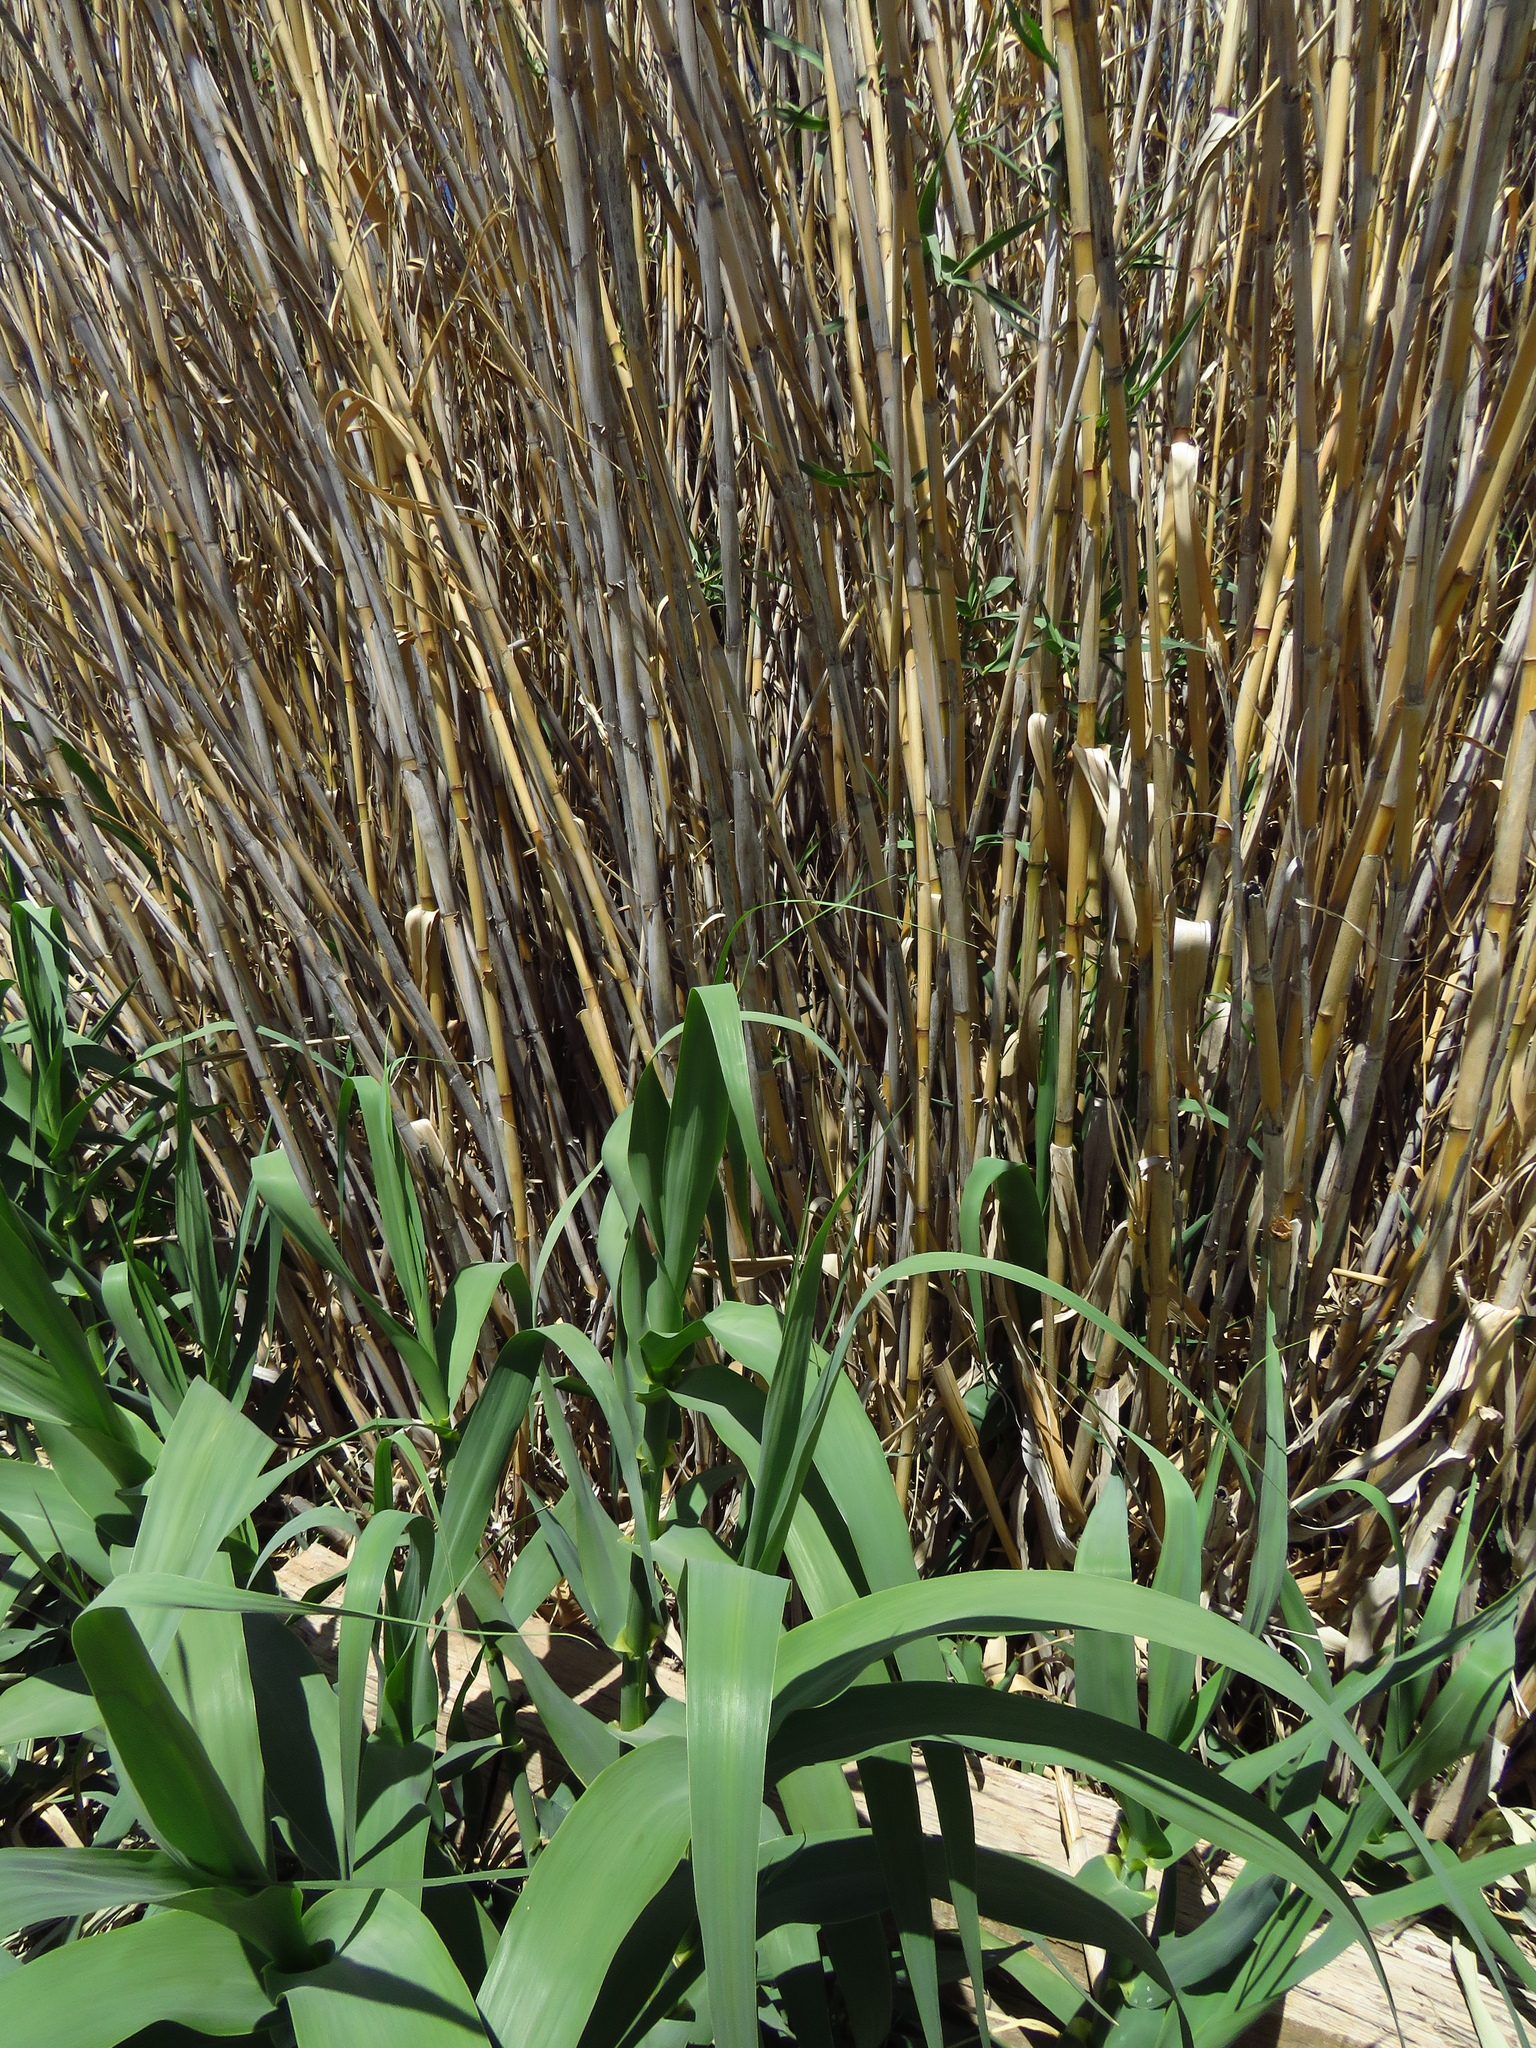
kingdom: Plantae
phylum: Tracheophyta
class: Liliopsida
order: Poales
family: Poaceae
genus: Arundo
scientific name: Arundo donax
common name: Giant reed
